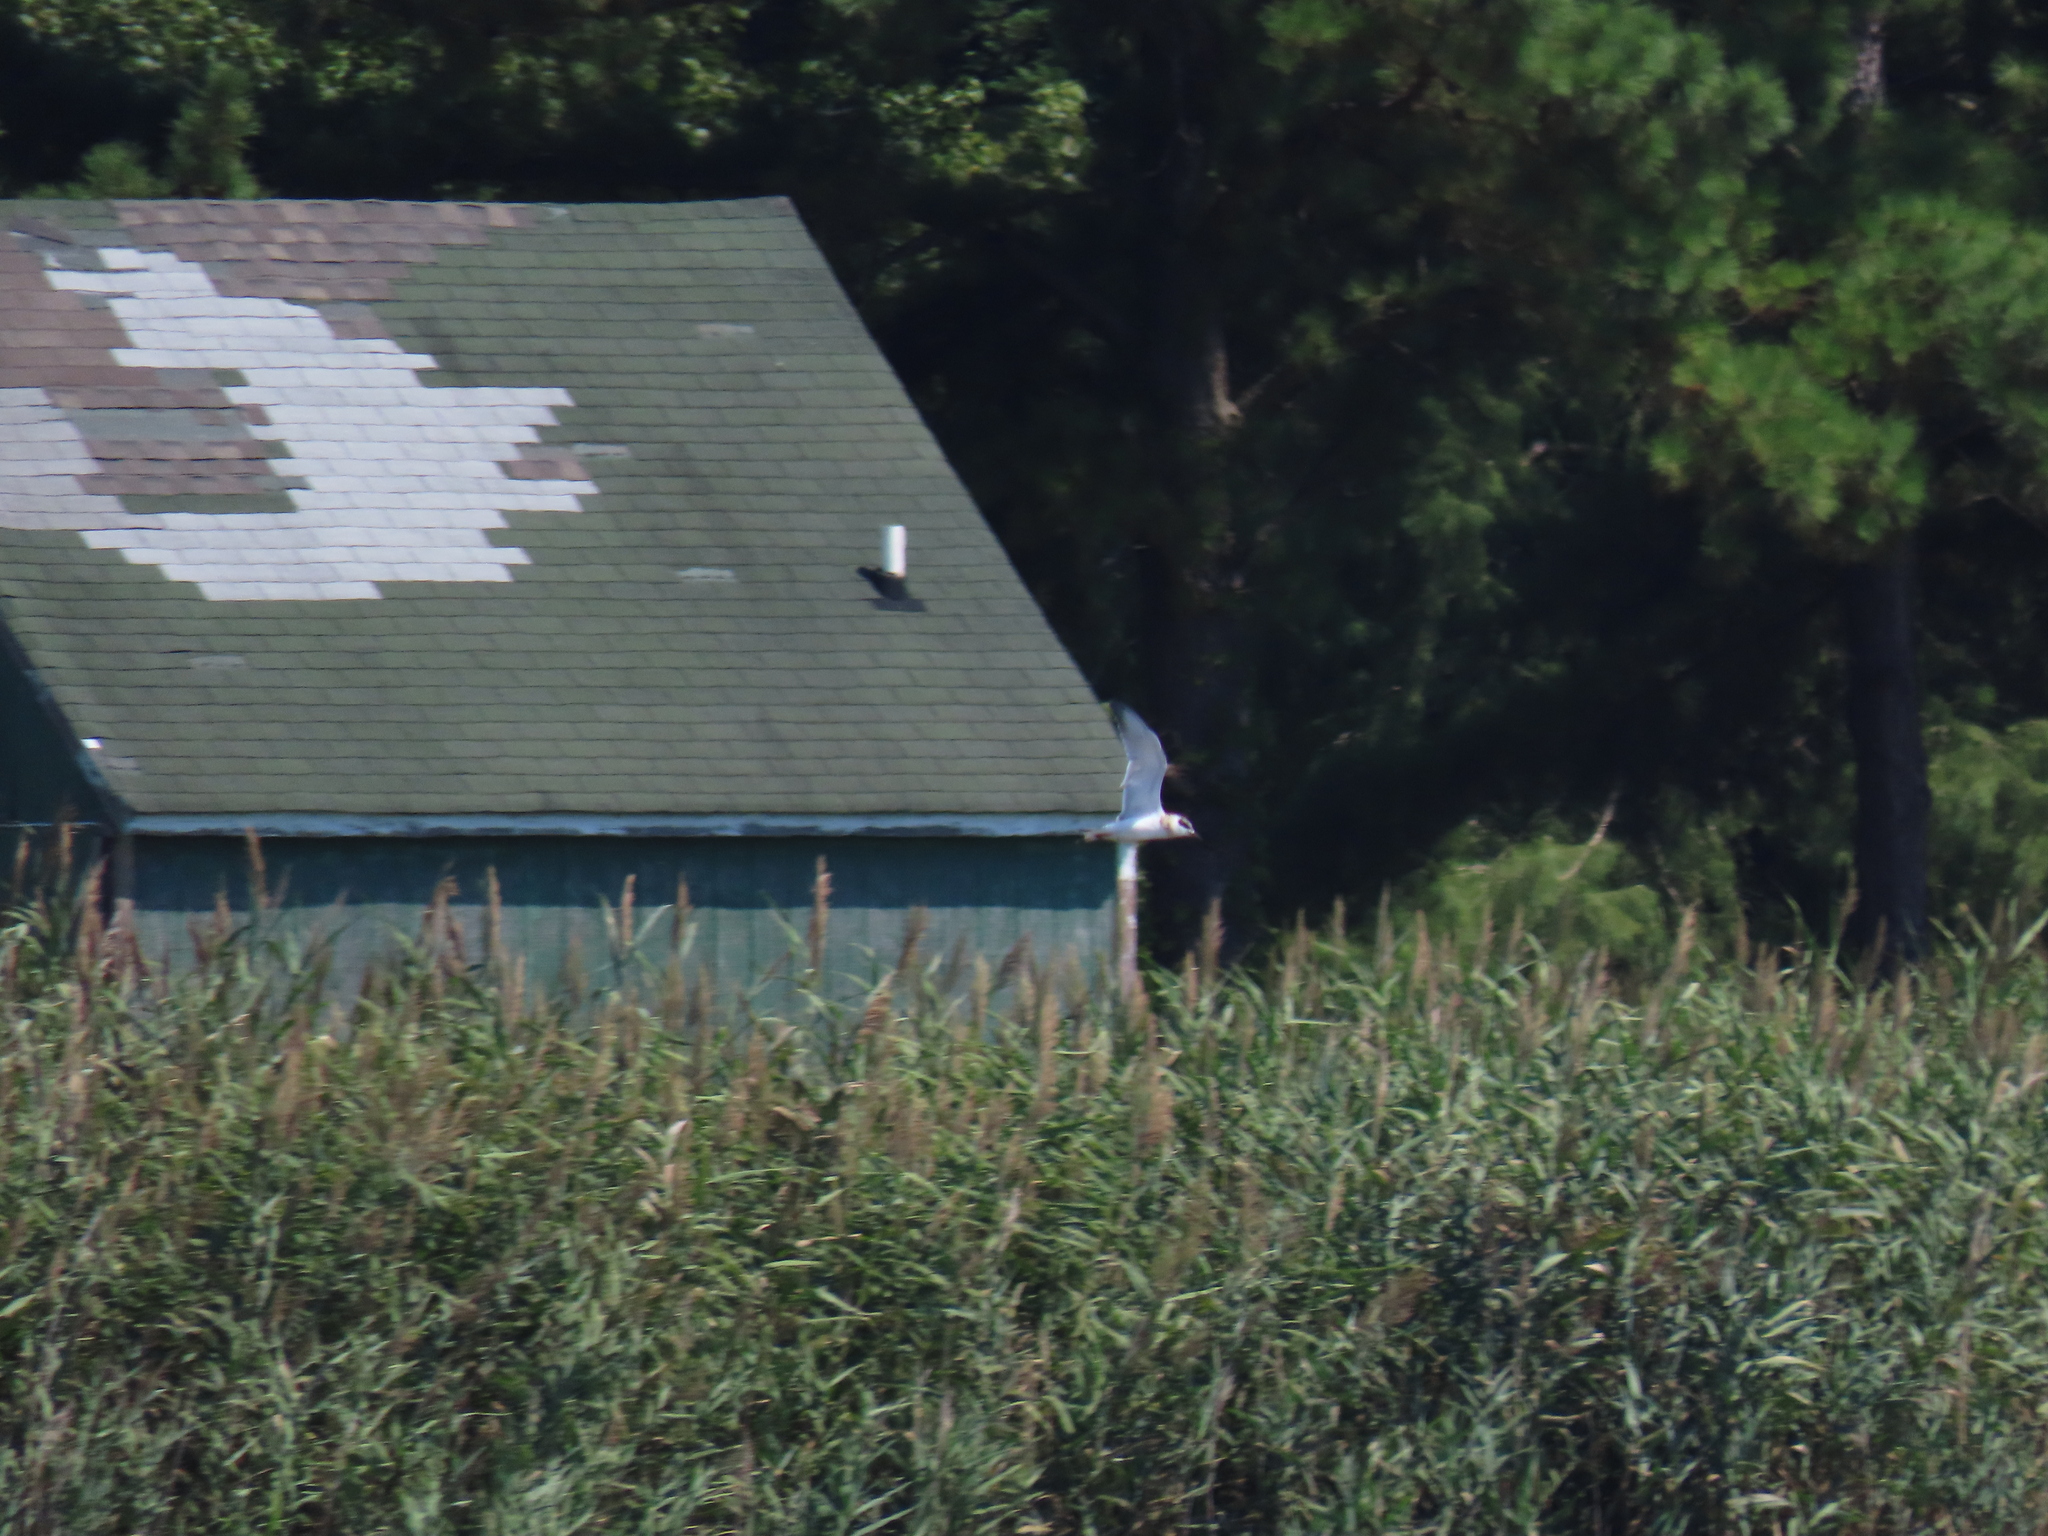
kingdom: Animalia
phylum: Chordata
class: Aves
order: Charadriiformes
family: Laridae
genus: Sterna
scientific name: Sterna forsteri
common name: Forster's tern
